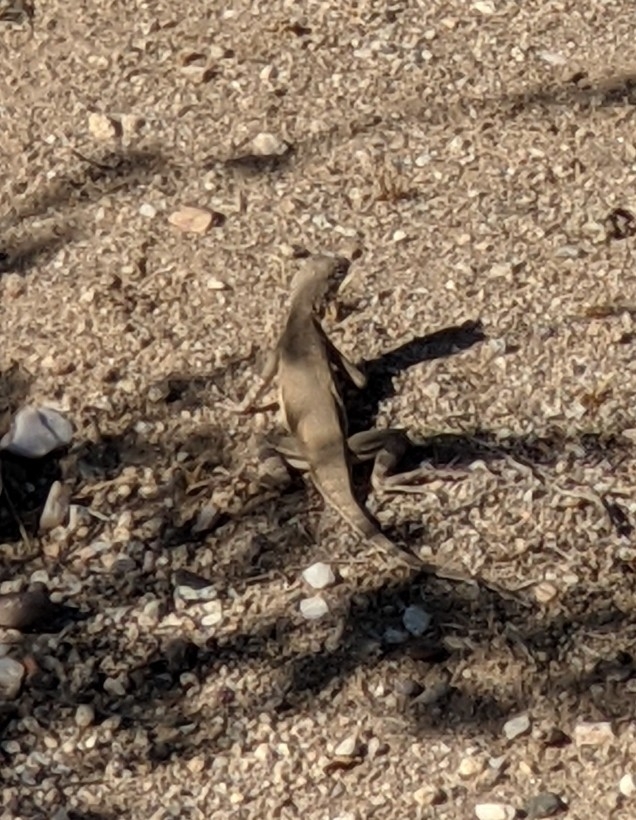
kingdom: Animalia
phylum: Chordata
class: Squamata
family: Phrynosomatidae
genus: Callisaurus
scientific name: Callisaurus draconoides
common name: Zebra-tailed lizard
